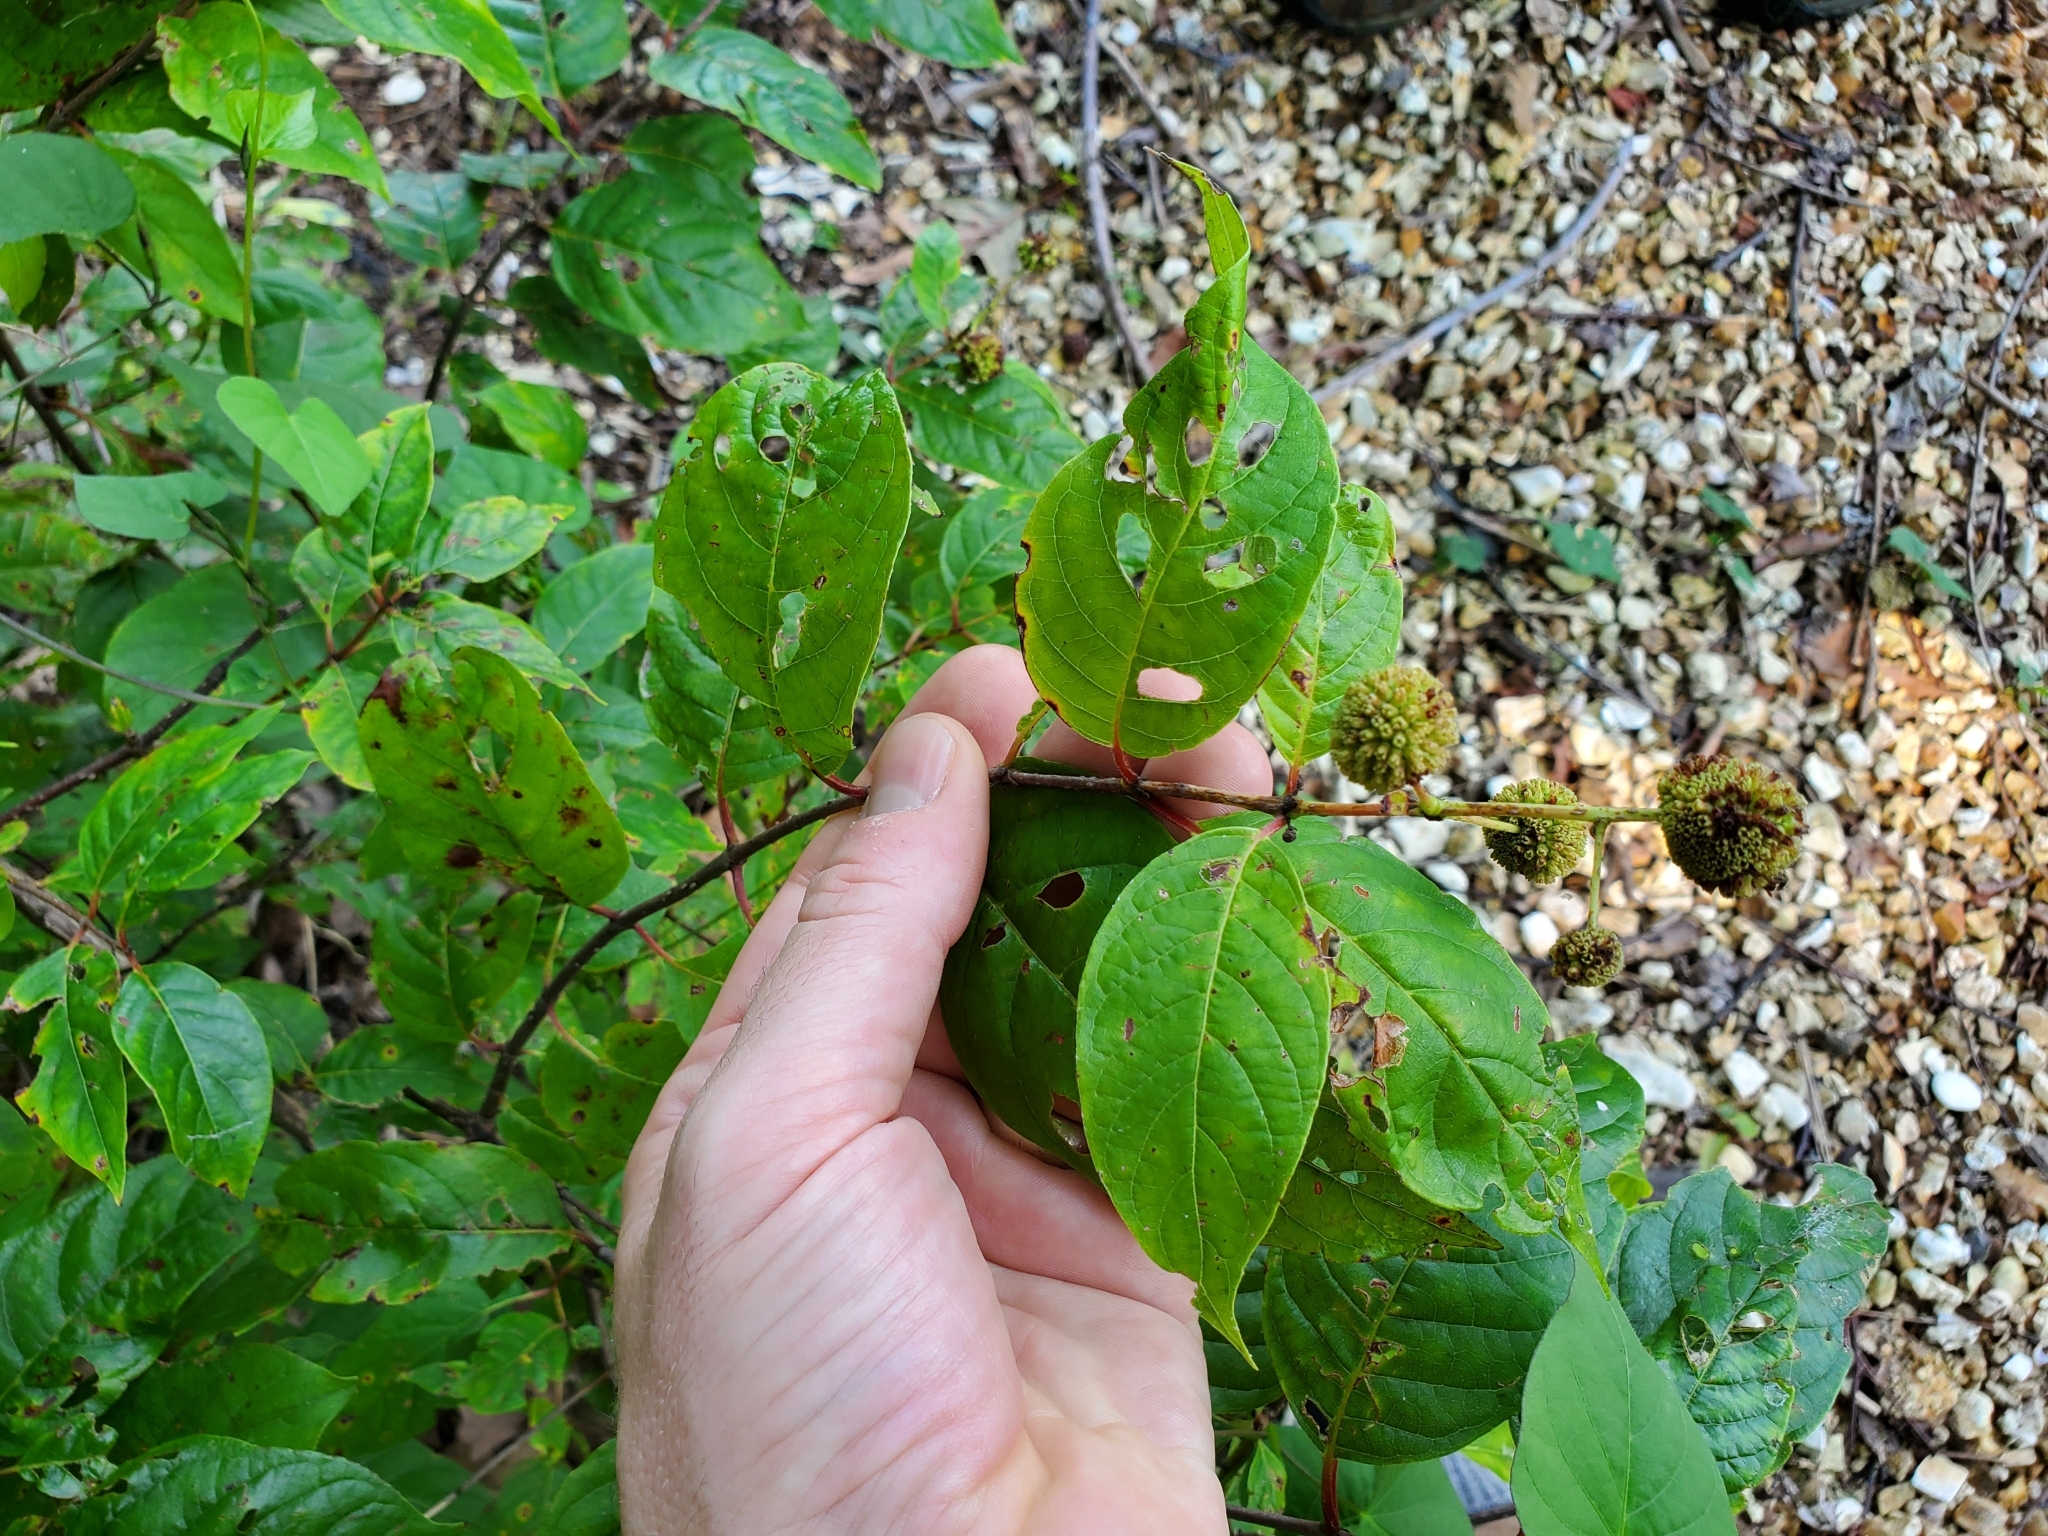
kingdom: Plantae
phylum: Tracheophyta
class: Magnoliopsida
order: Gentianales
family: Rubiaceae
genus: Cephalanthus
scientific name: Cephalanthus occidentalis
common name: Button-willow
